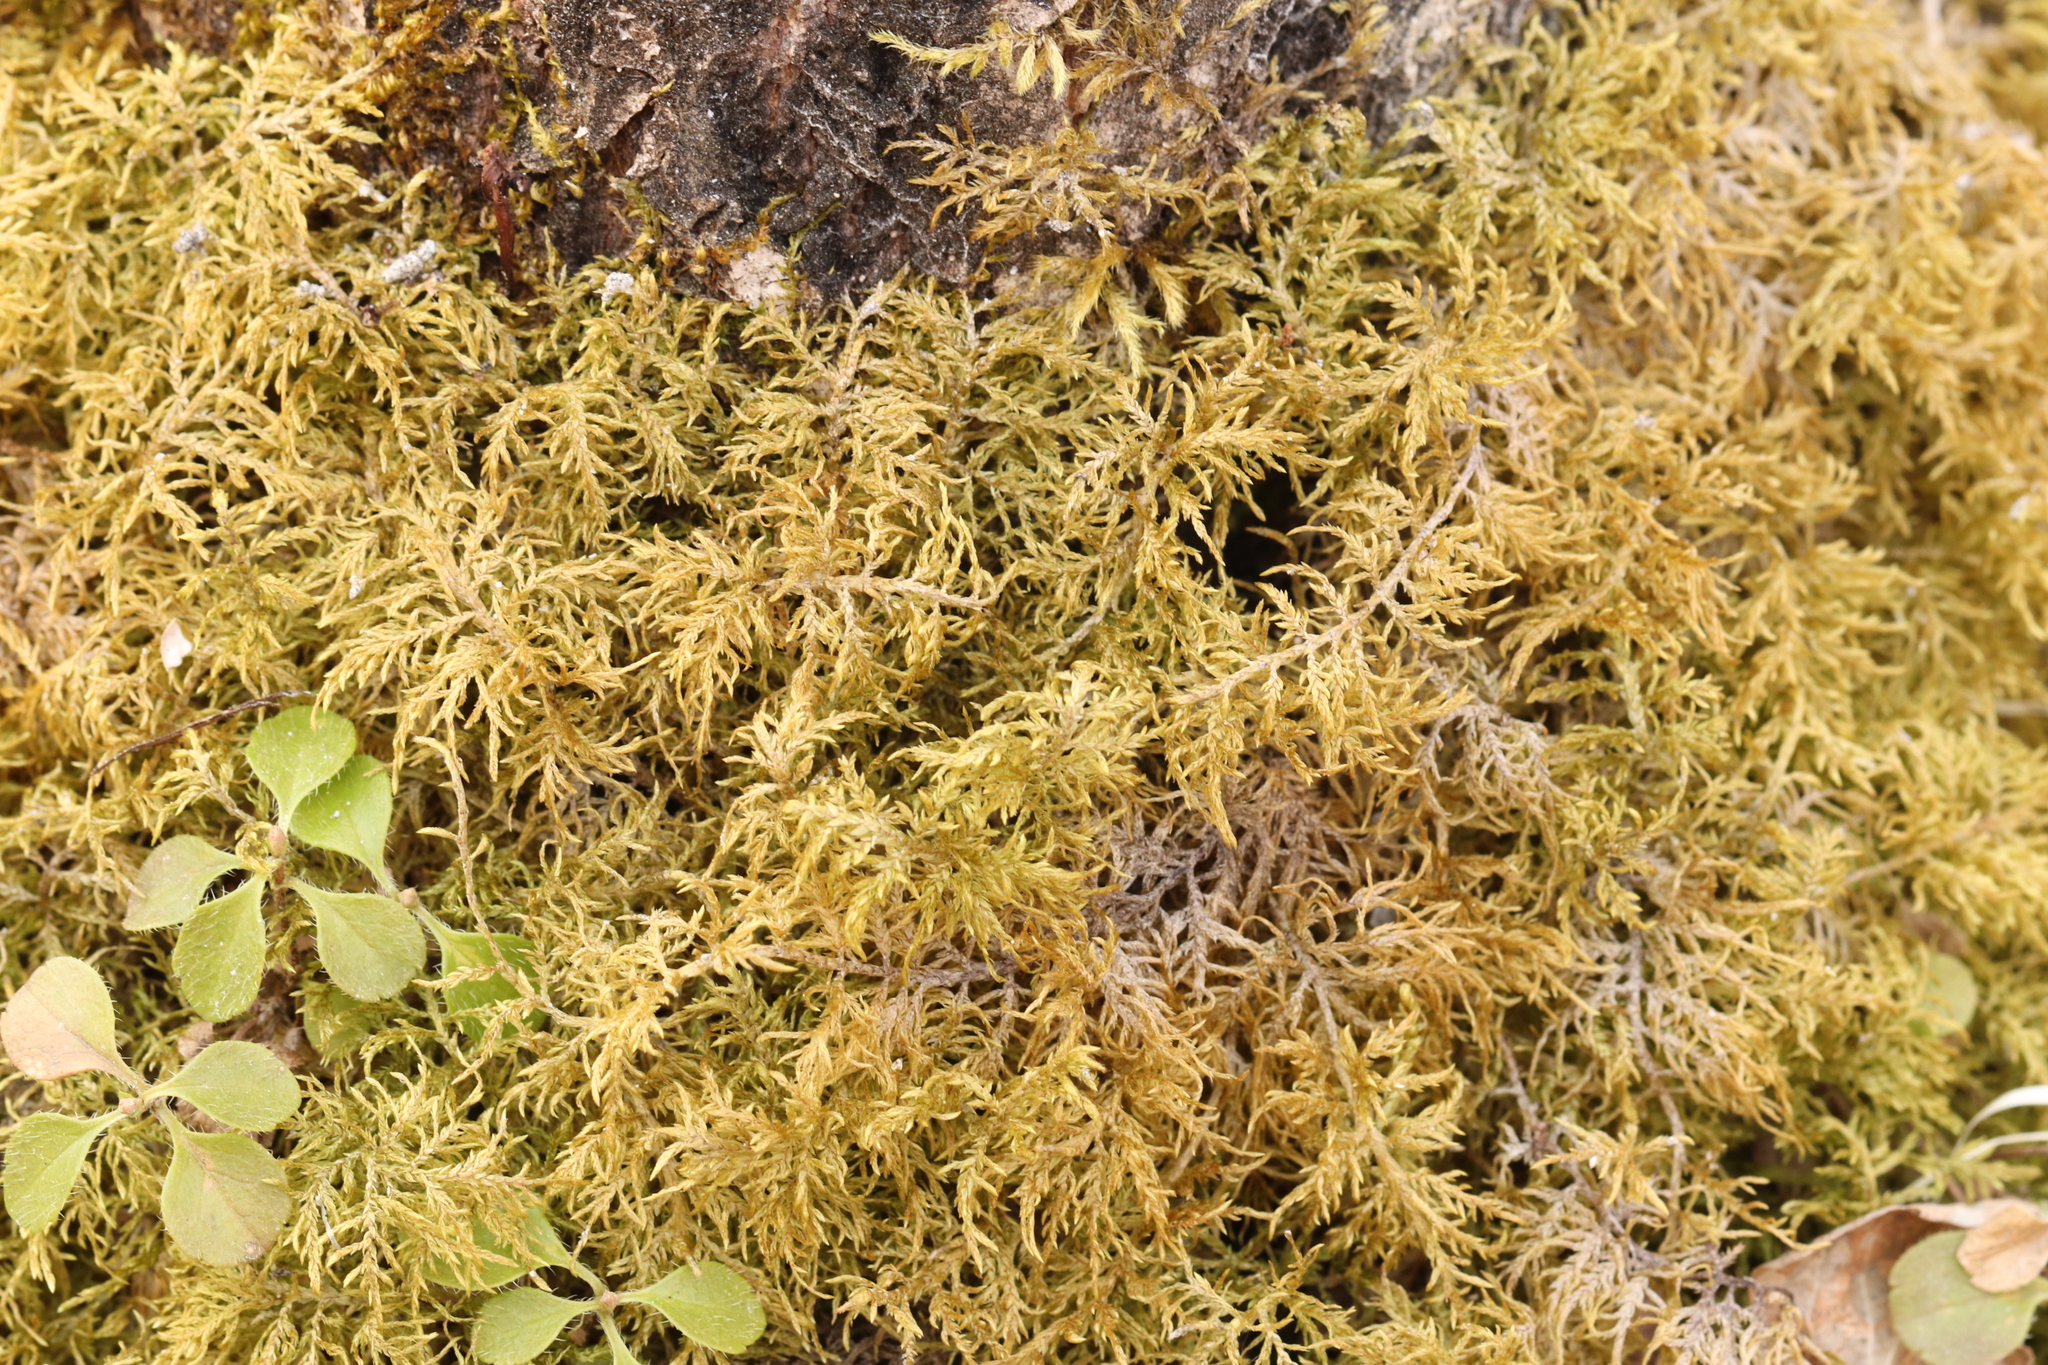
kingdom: Plantae
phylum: Bryophyta
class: Bryopsida
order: Hypnales
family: Hylocomiaceae
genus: Hylocomium
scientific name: Hylocomium splendens
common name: Stairstep moss
